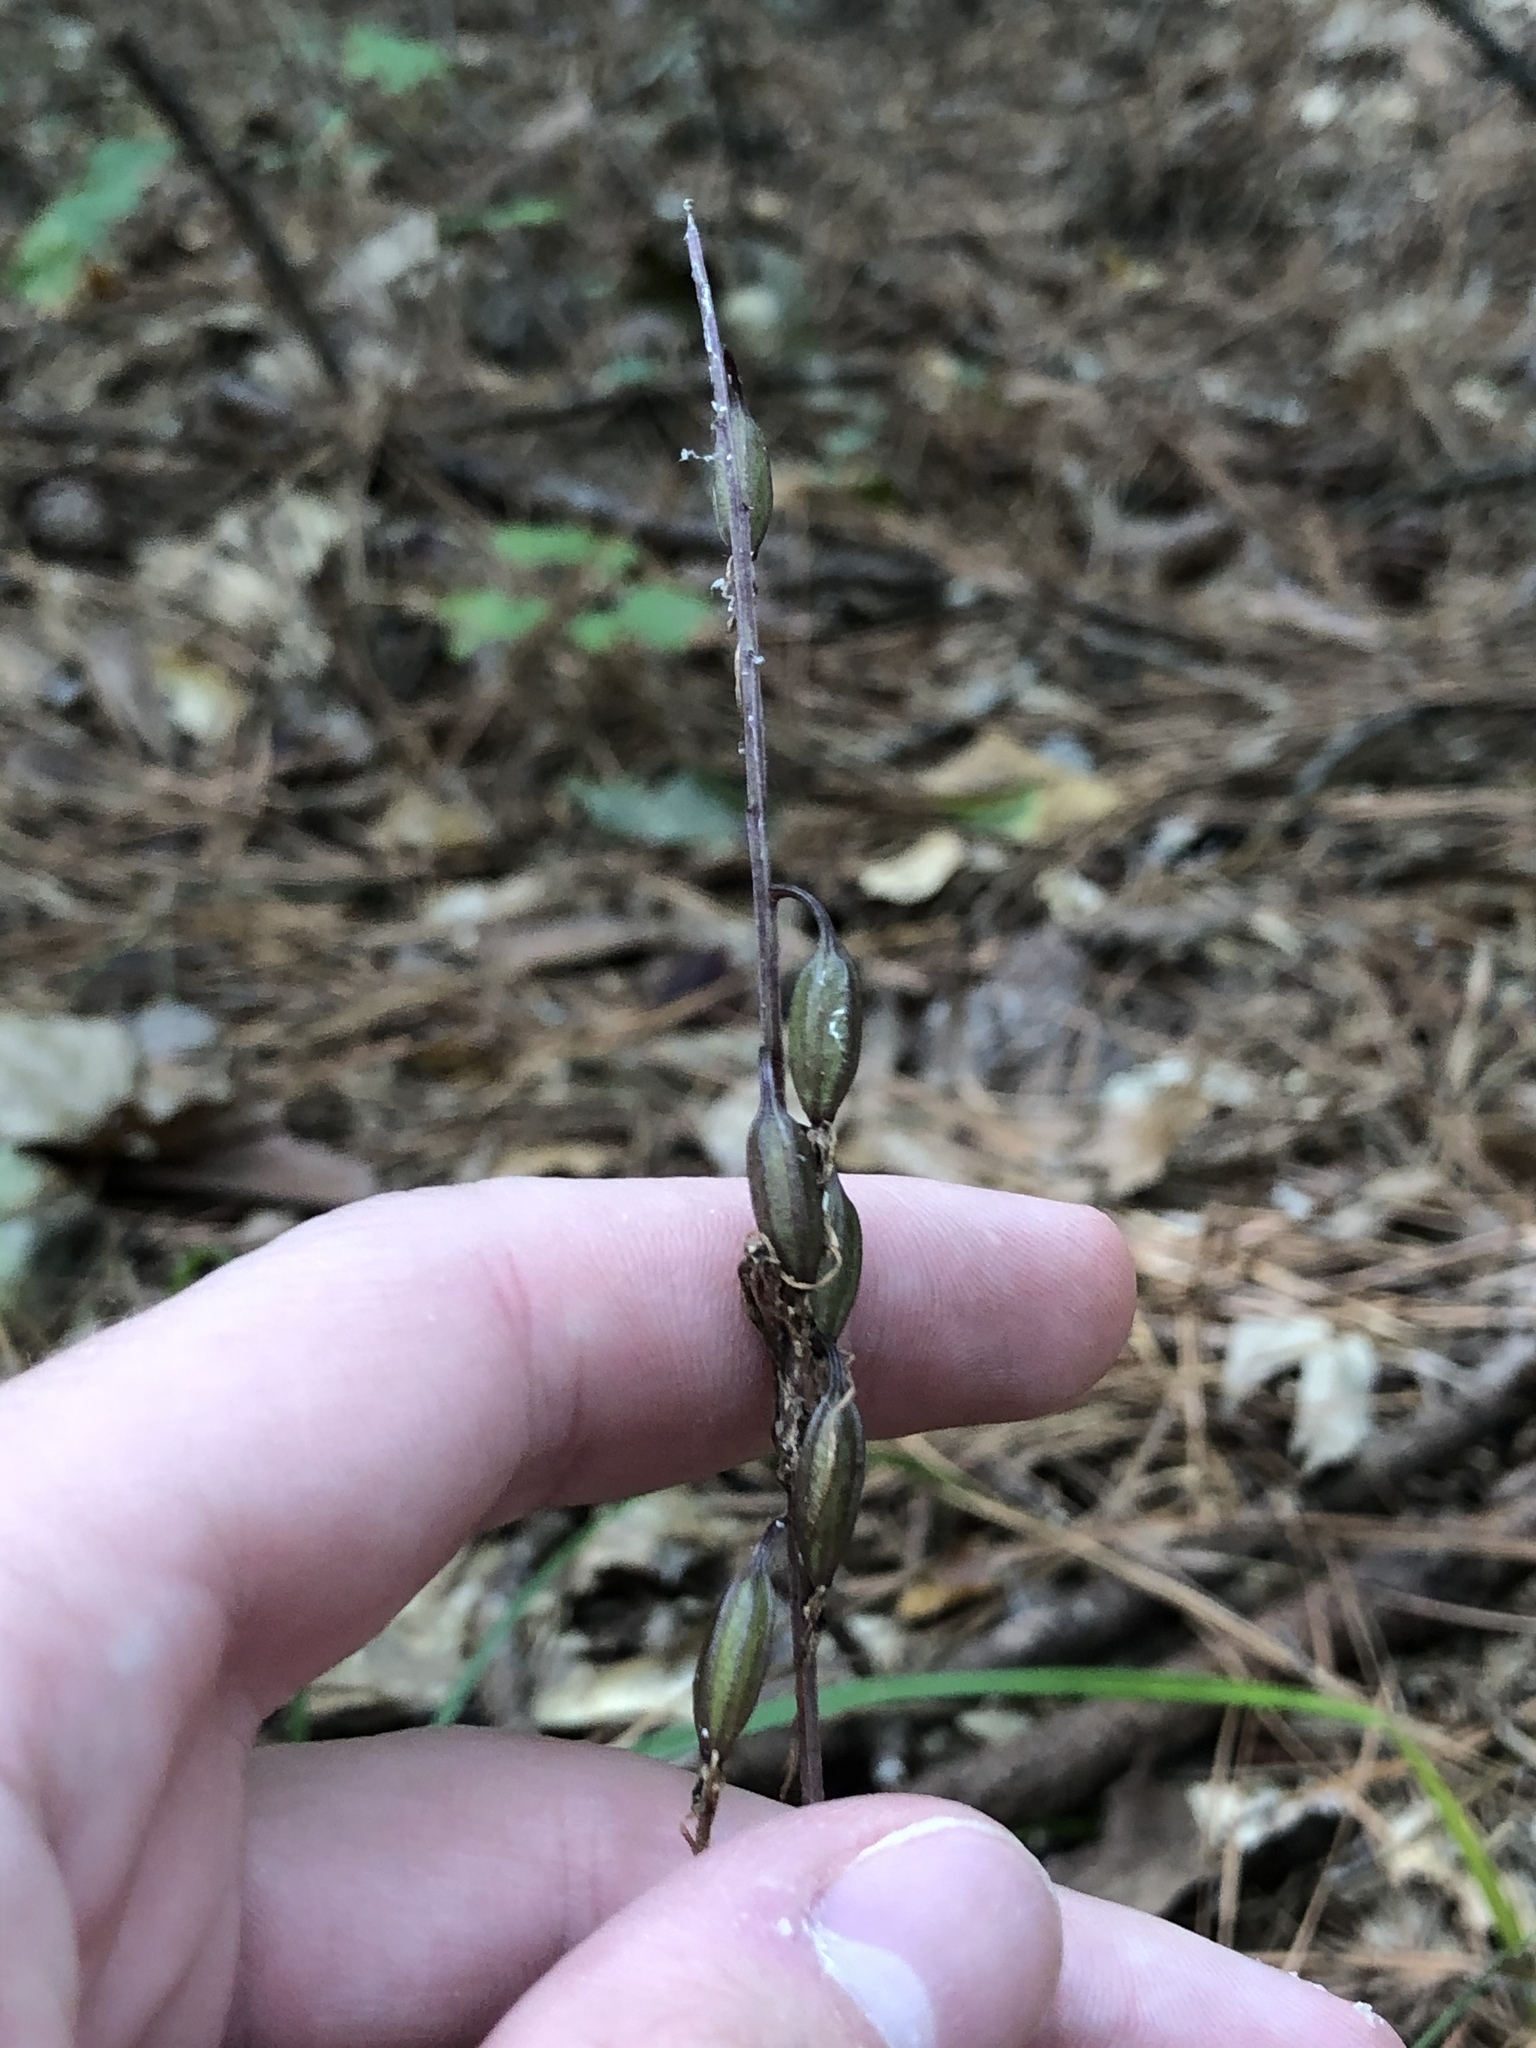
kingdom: Plantae
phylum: Tracheophyta
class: Liliopsida
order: Asparagales
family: Orchidaceae
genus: Tipularia
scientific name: Tipularia discolor
